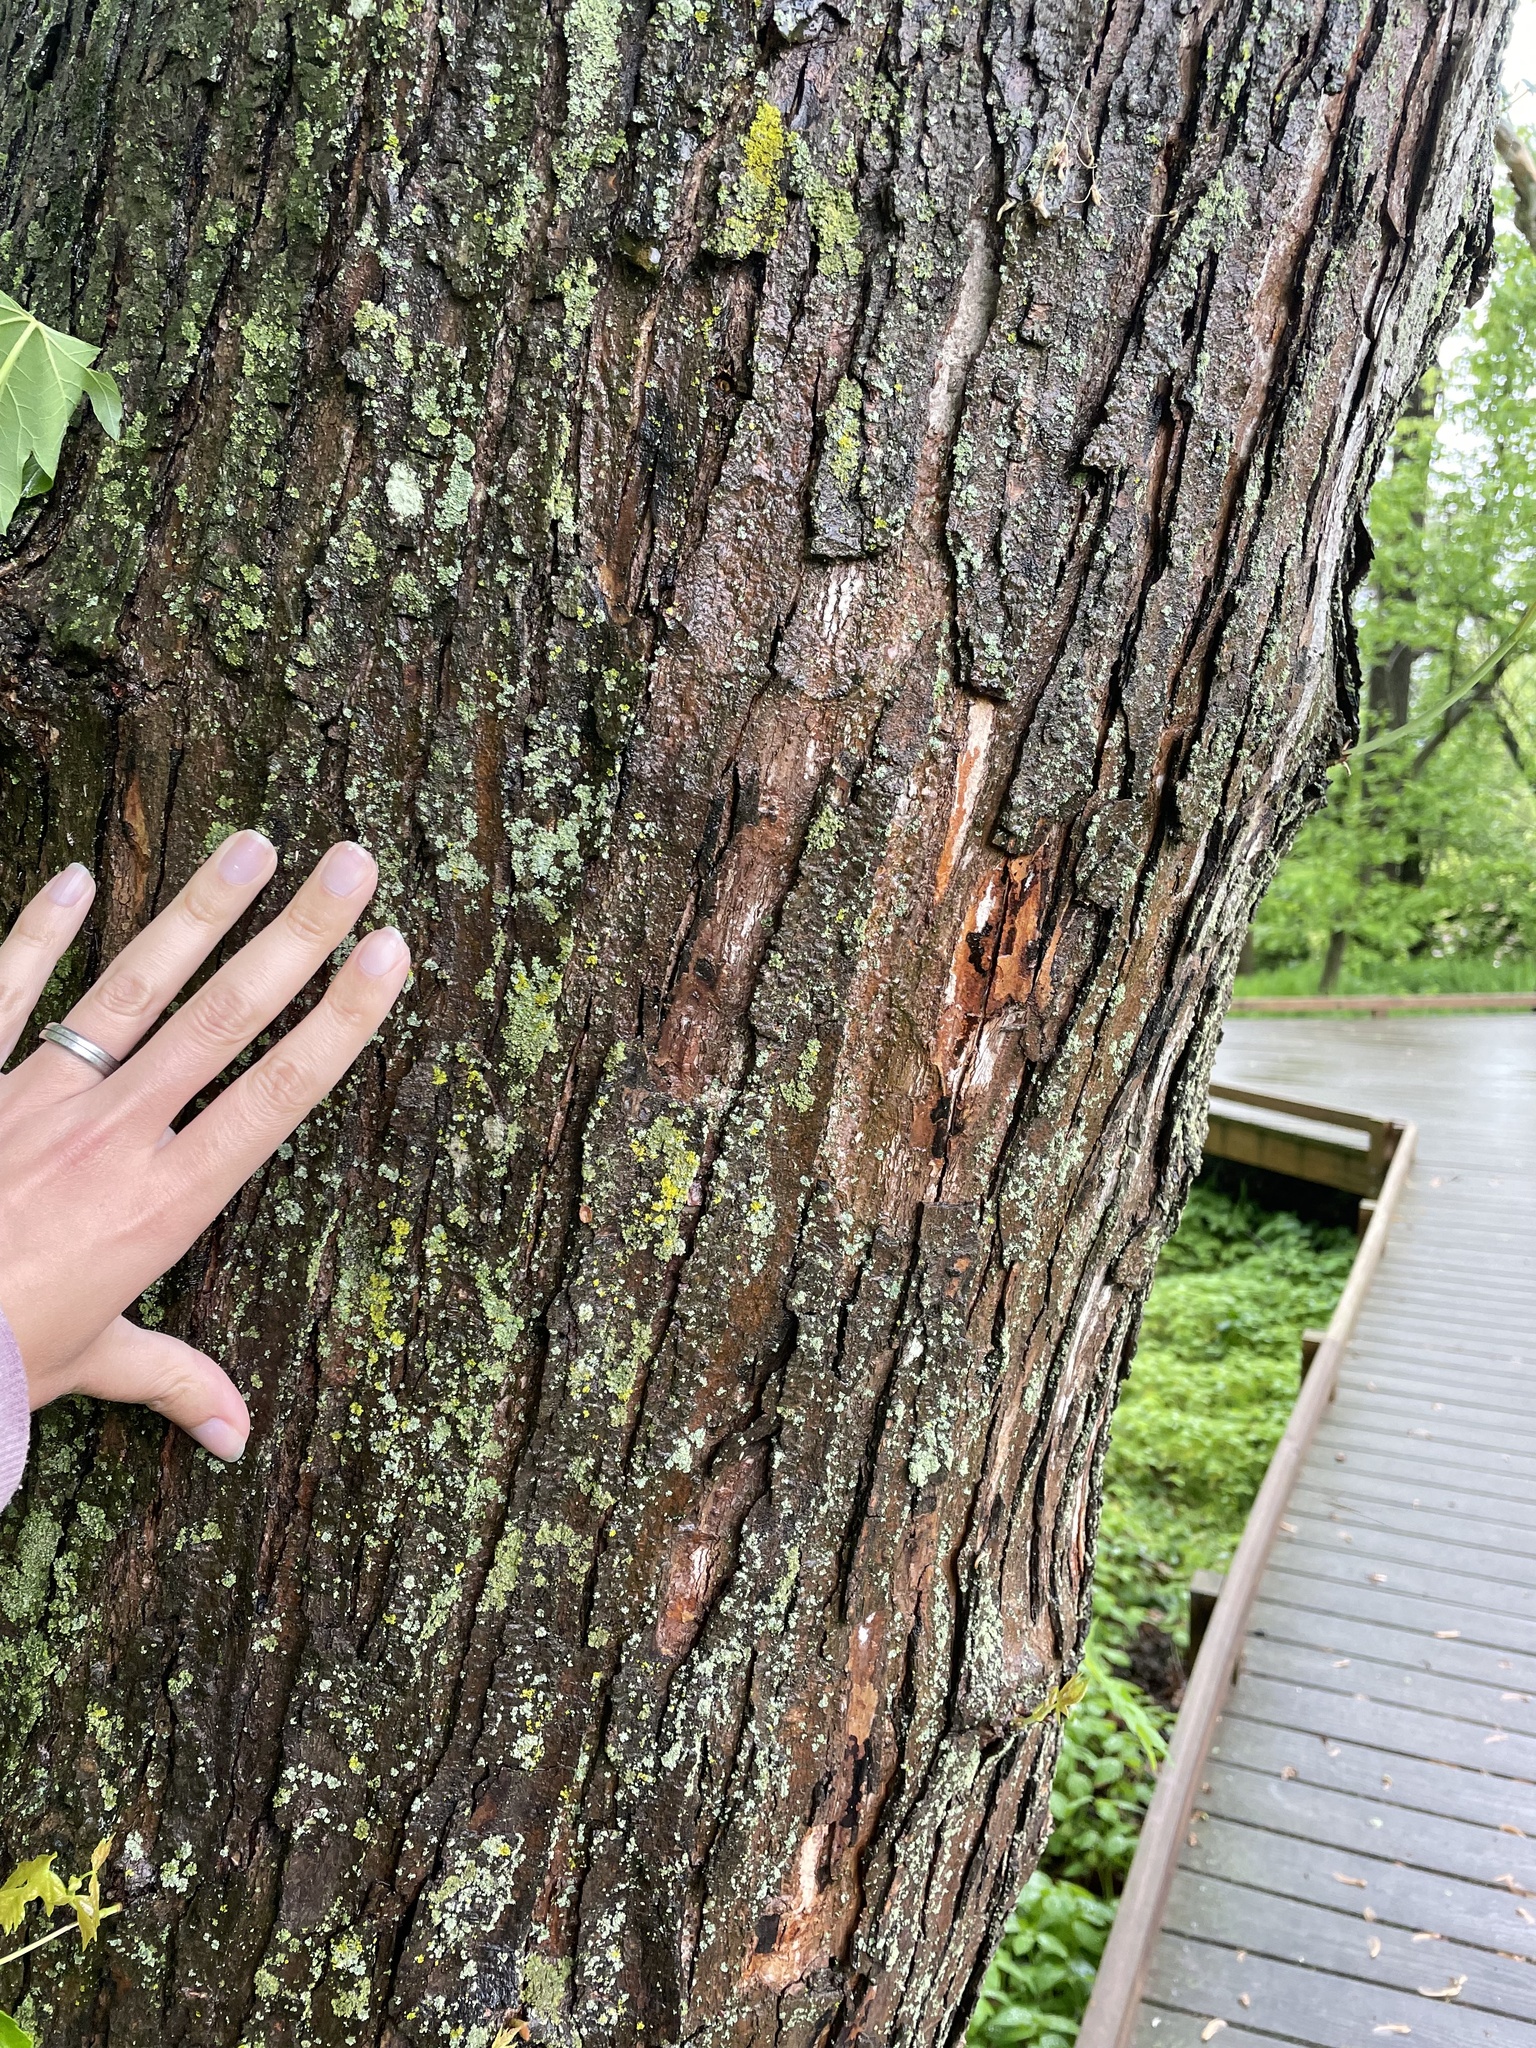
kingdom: Plantae
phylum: Tracheophyta
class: Magnoliopsida
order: Sapindales
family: Sapindaceae
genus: Acer
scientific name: Acer saccharinum
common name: Silver maple
